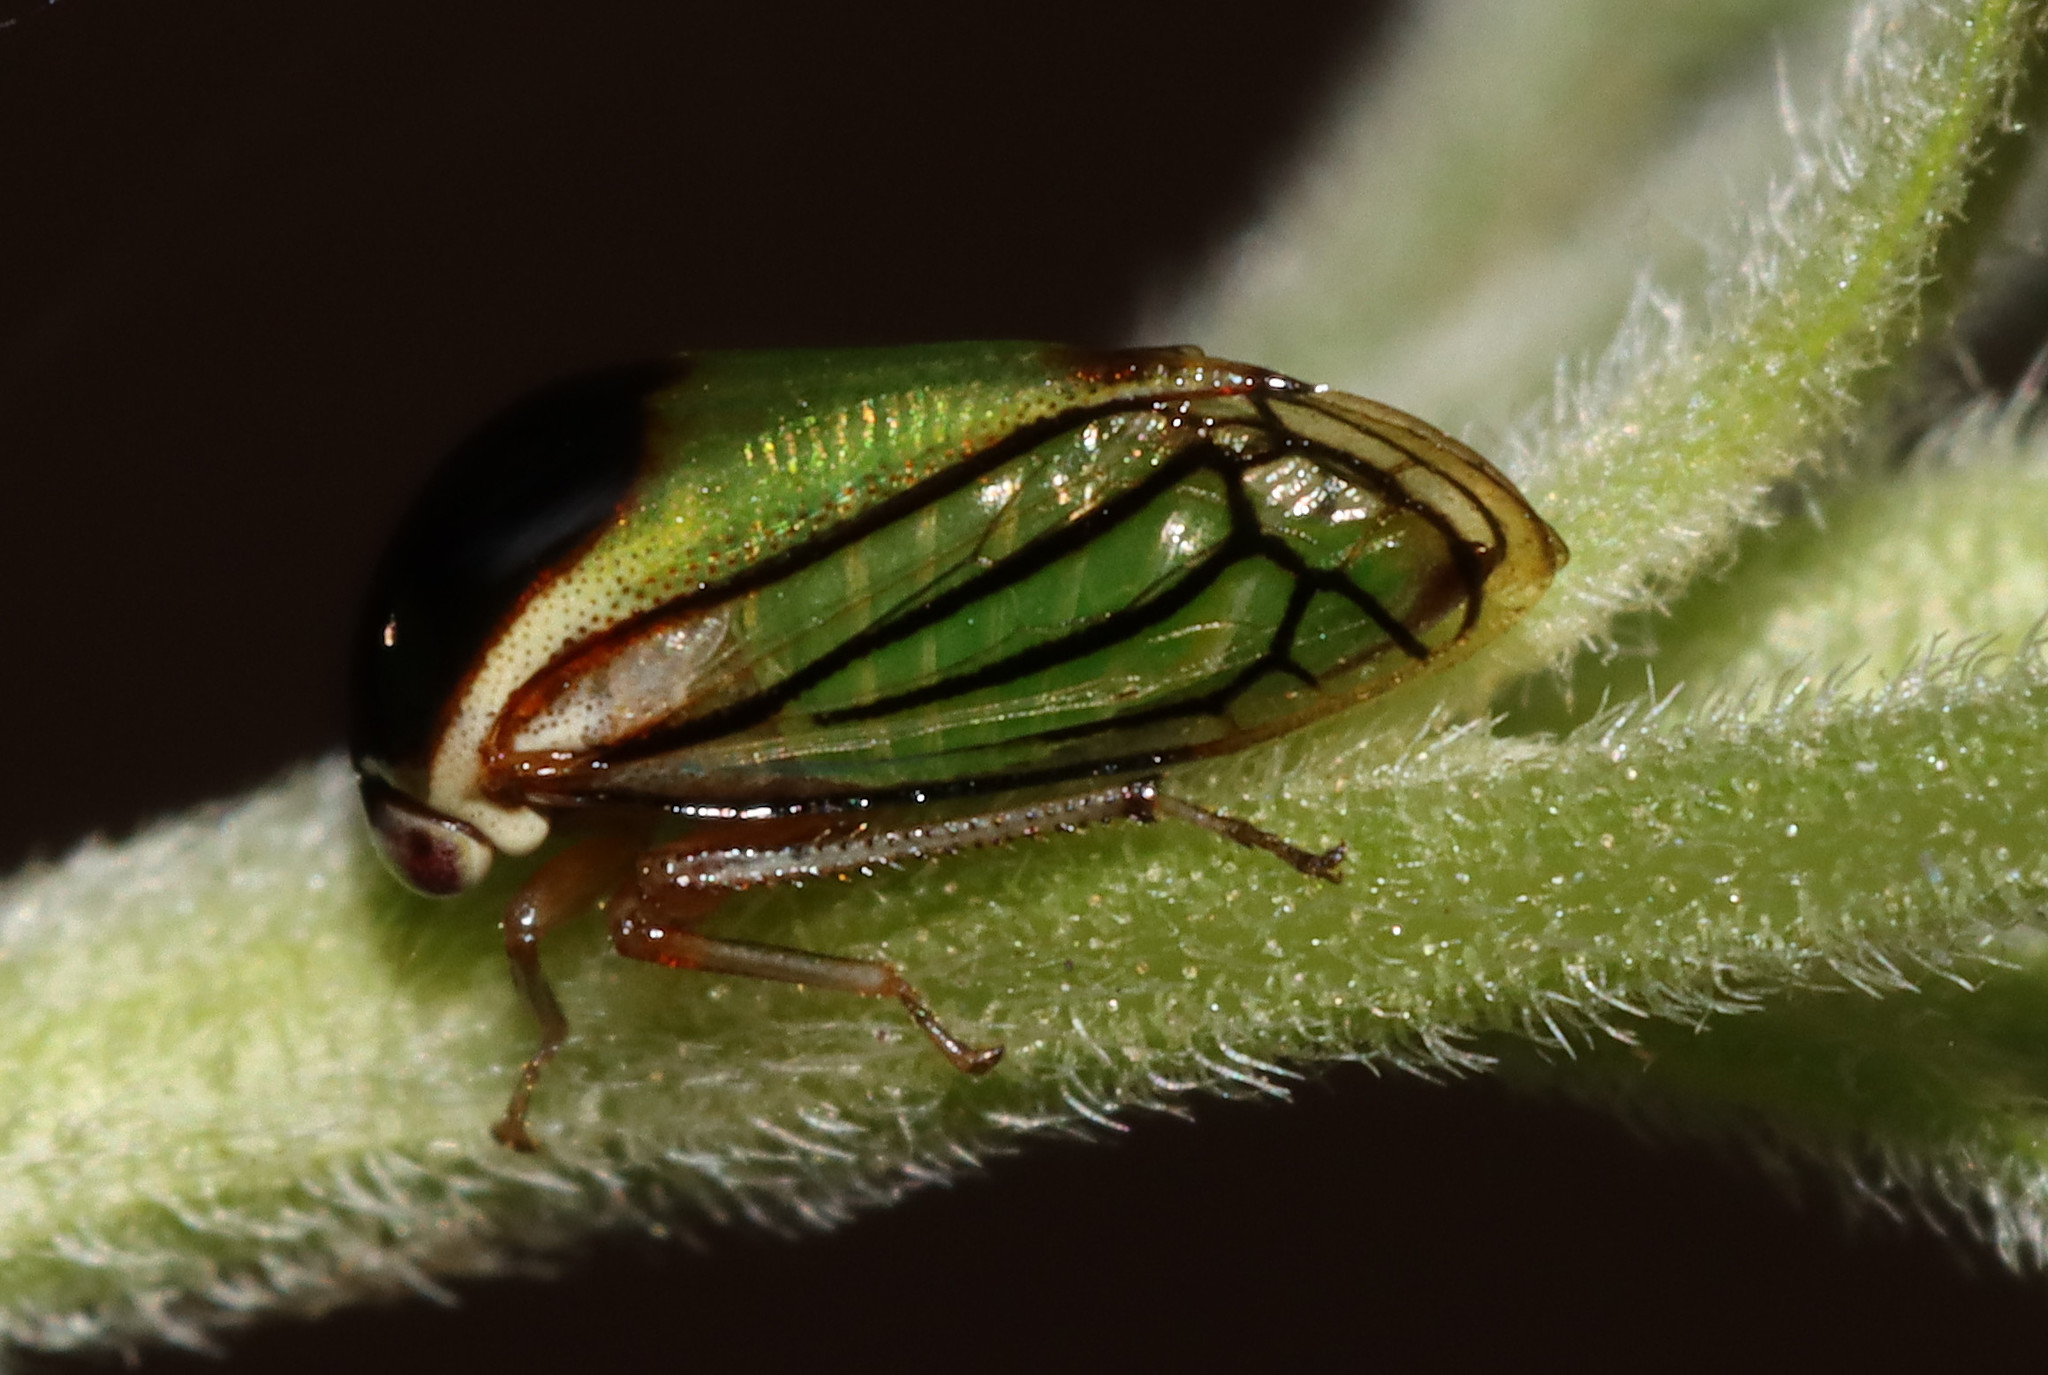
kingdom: Animalia
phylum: Arthropoda
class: Insecta
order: Hemiptera
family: Membracidae
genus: Acutalis
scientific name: Acutalis tartarea
